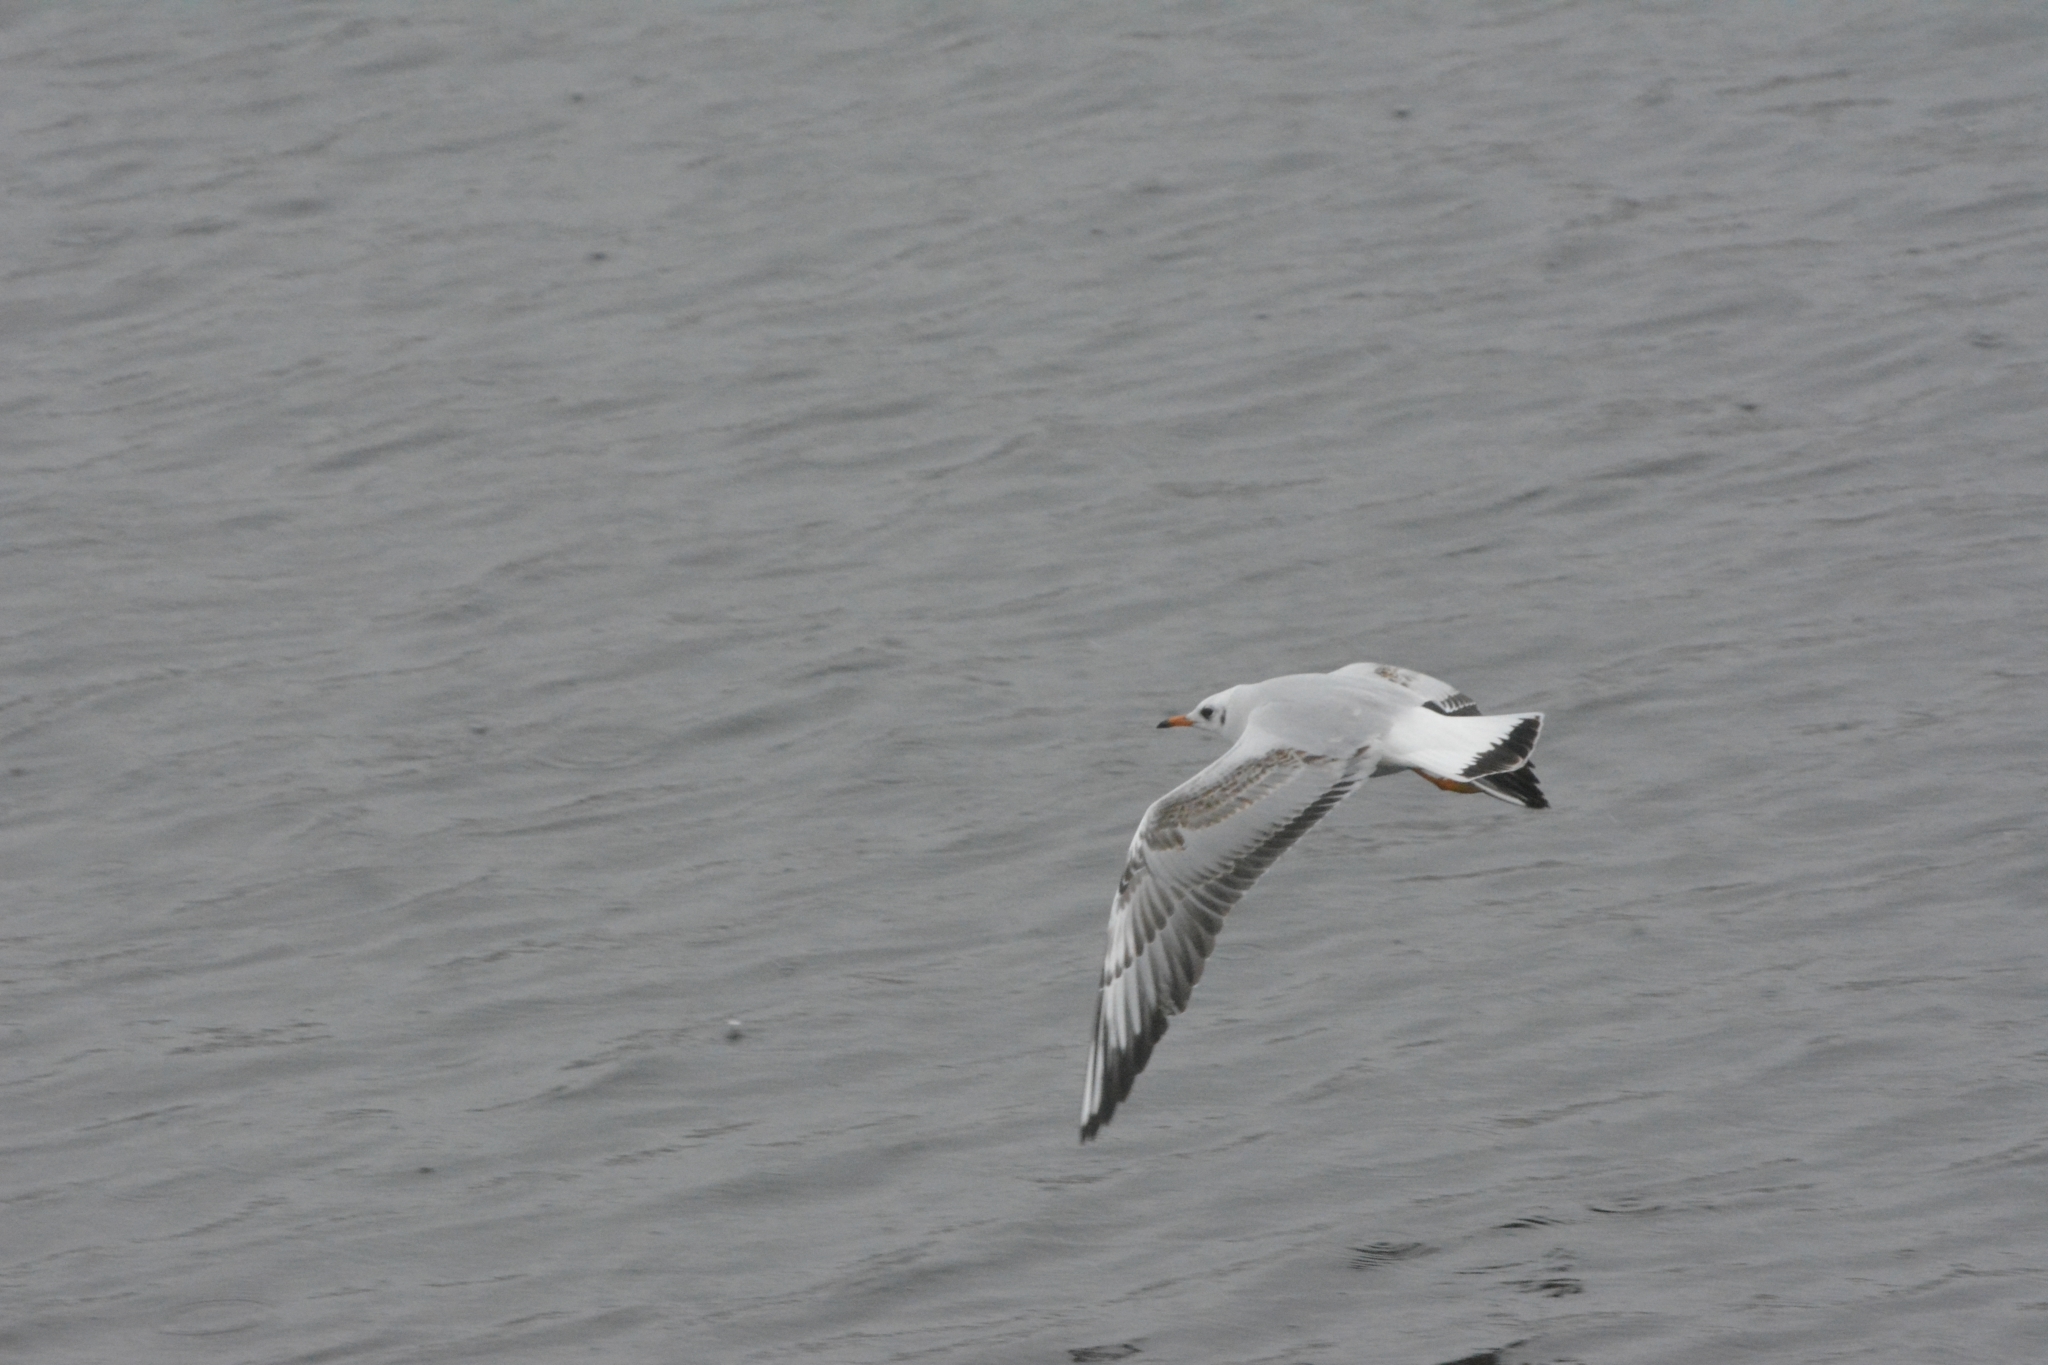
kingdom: Animalia
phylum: Chordata
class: Aves
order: Charadriiformes
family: Laridae
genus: Chroicocephalus
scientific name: Chroicocephalus ridibundus
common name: Black-headed gull
